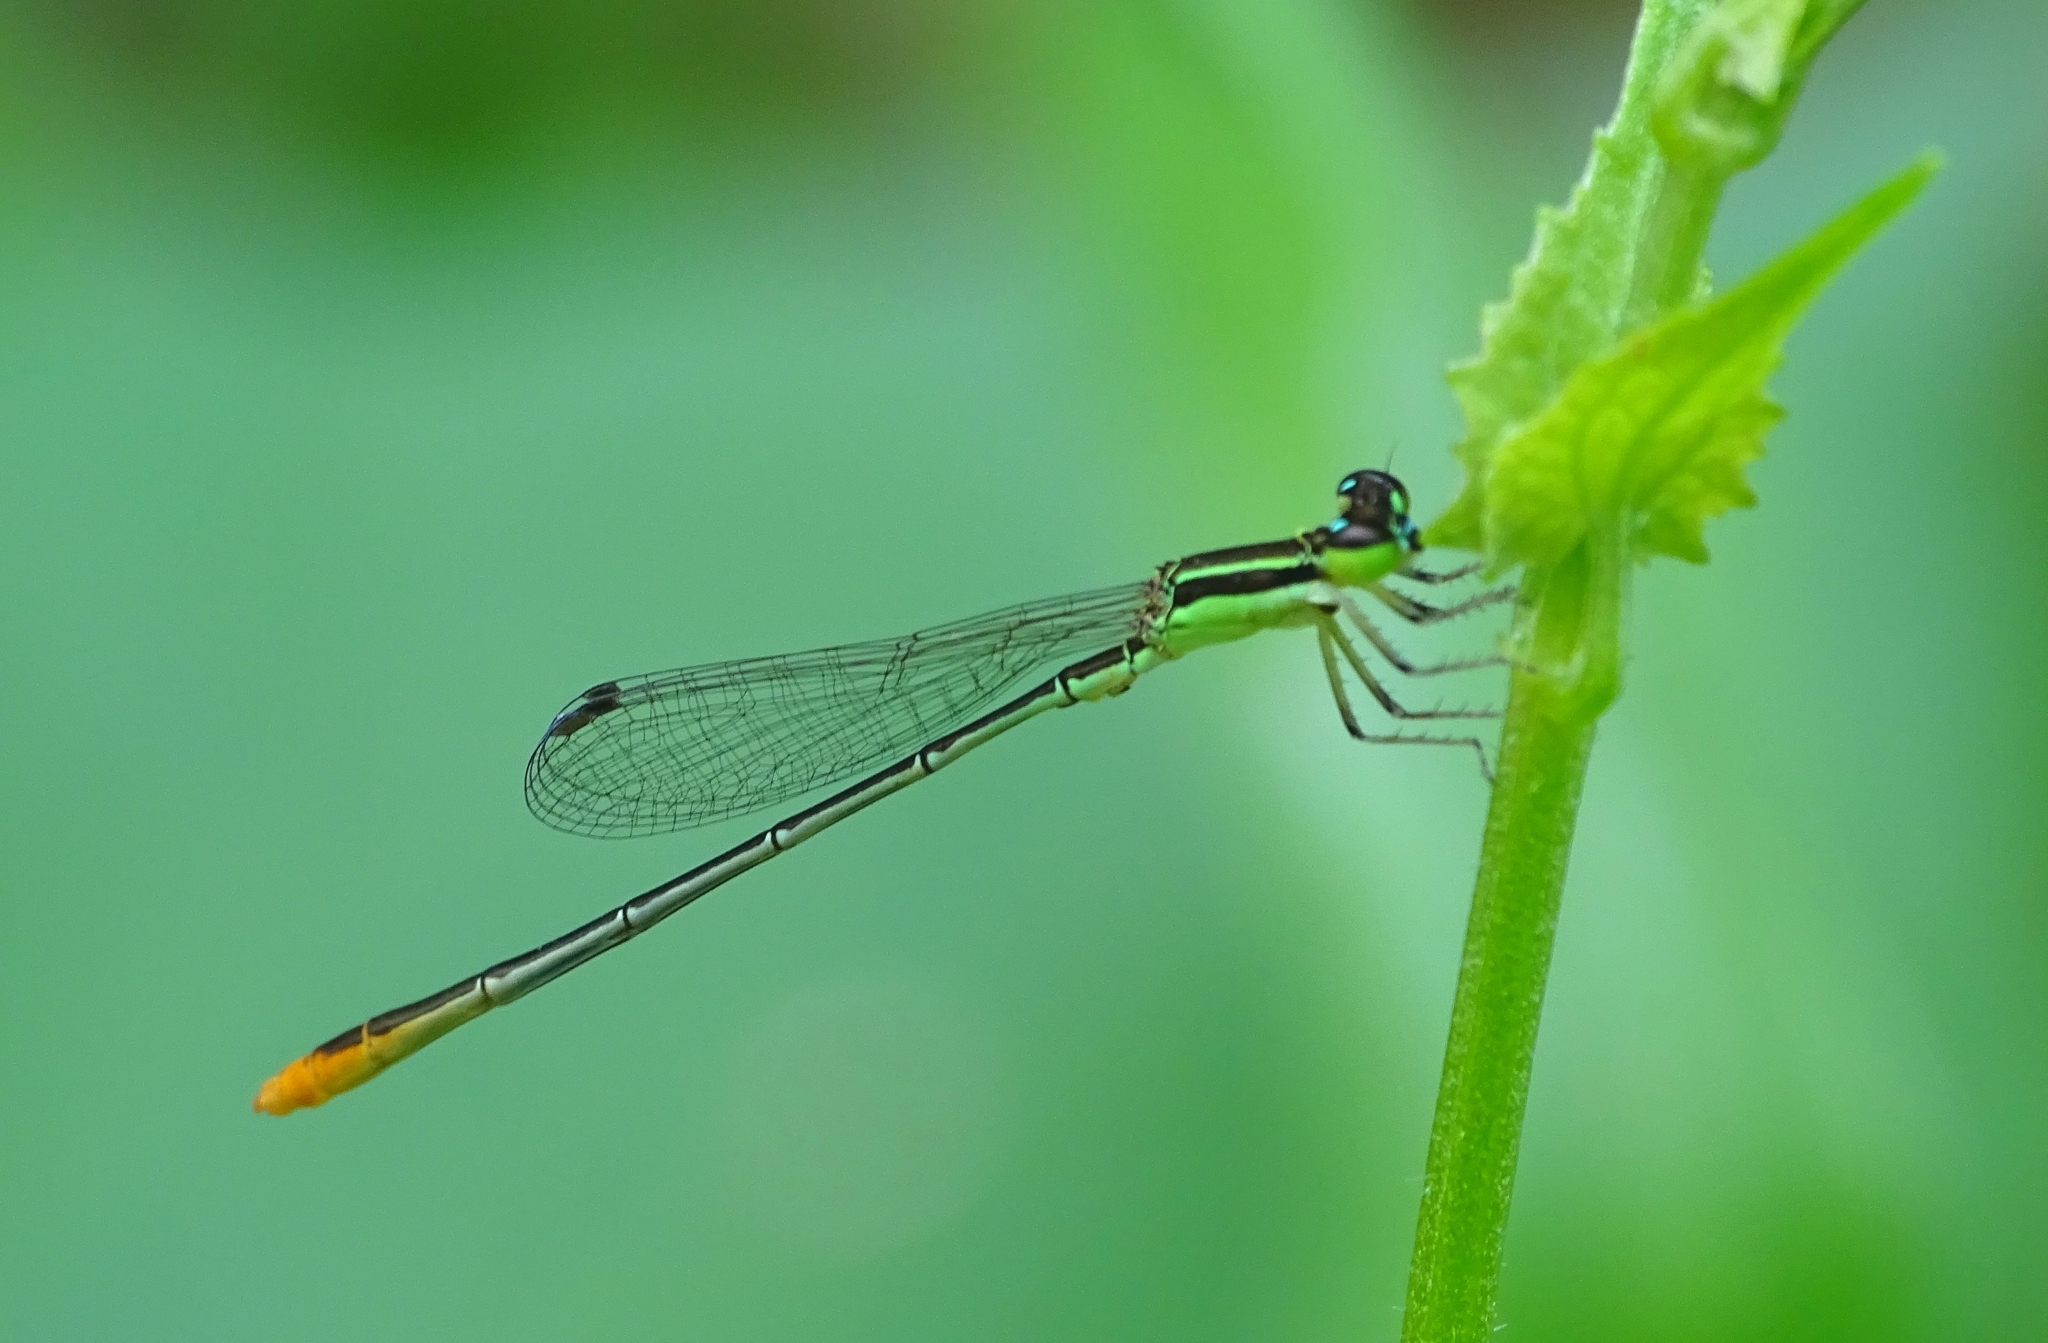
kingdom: Animalia
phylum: Arthropoda
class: Insecta
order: Odonata
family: Coenagrionidae
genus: Agriocnemis
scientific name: Agriocnemis pygmaea
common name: Pygmy wisp
